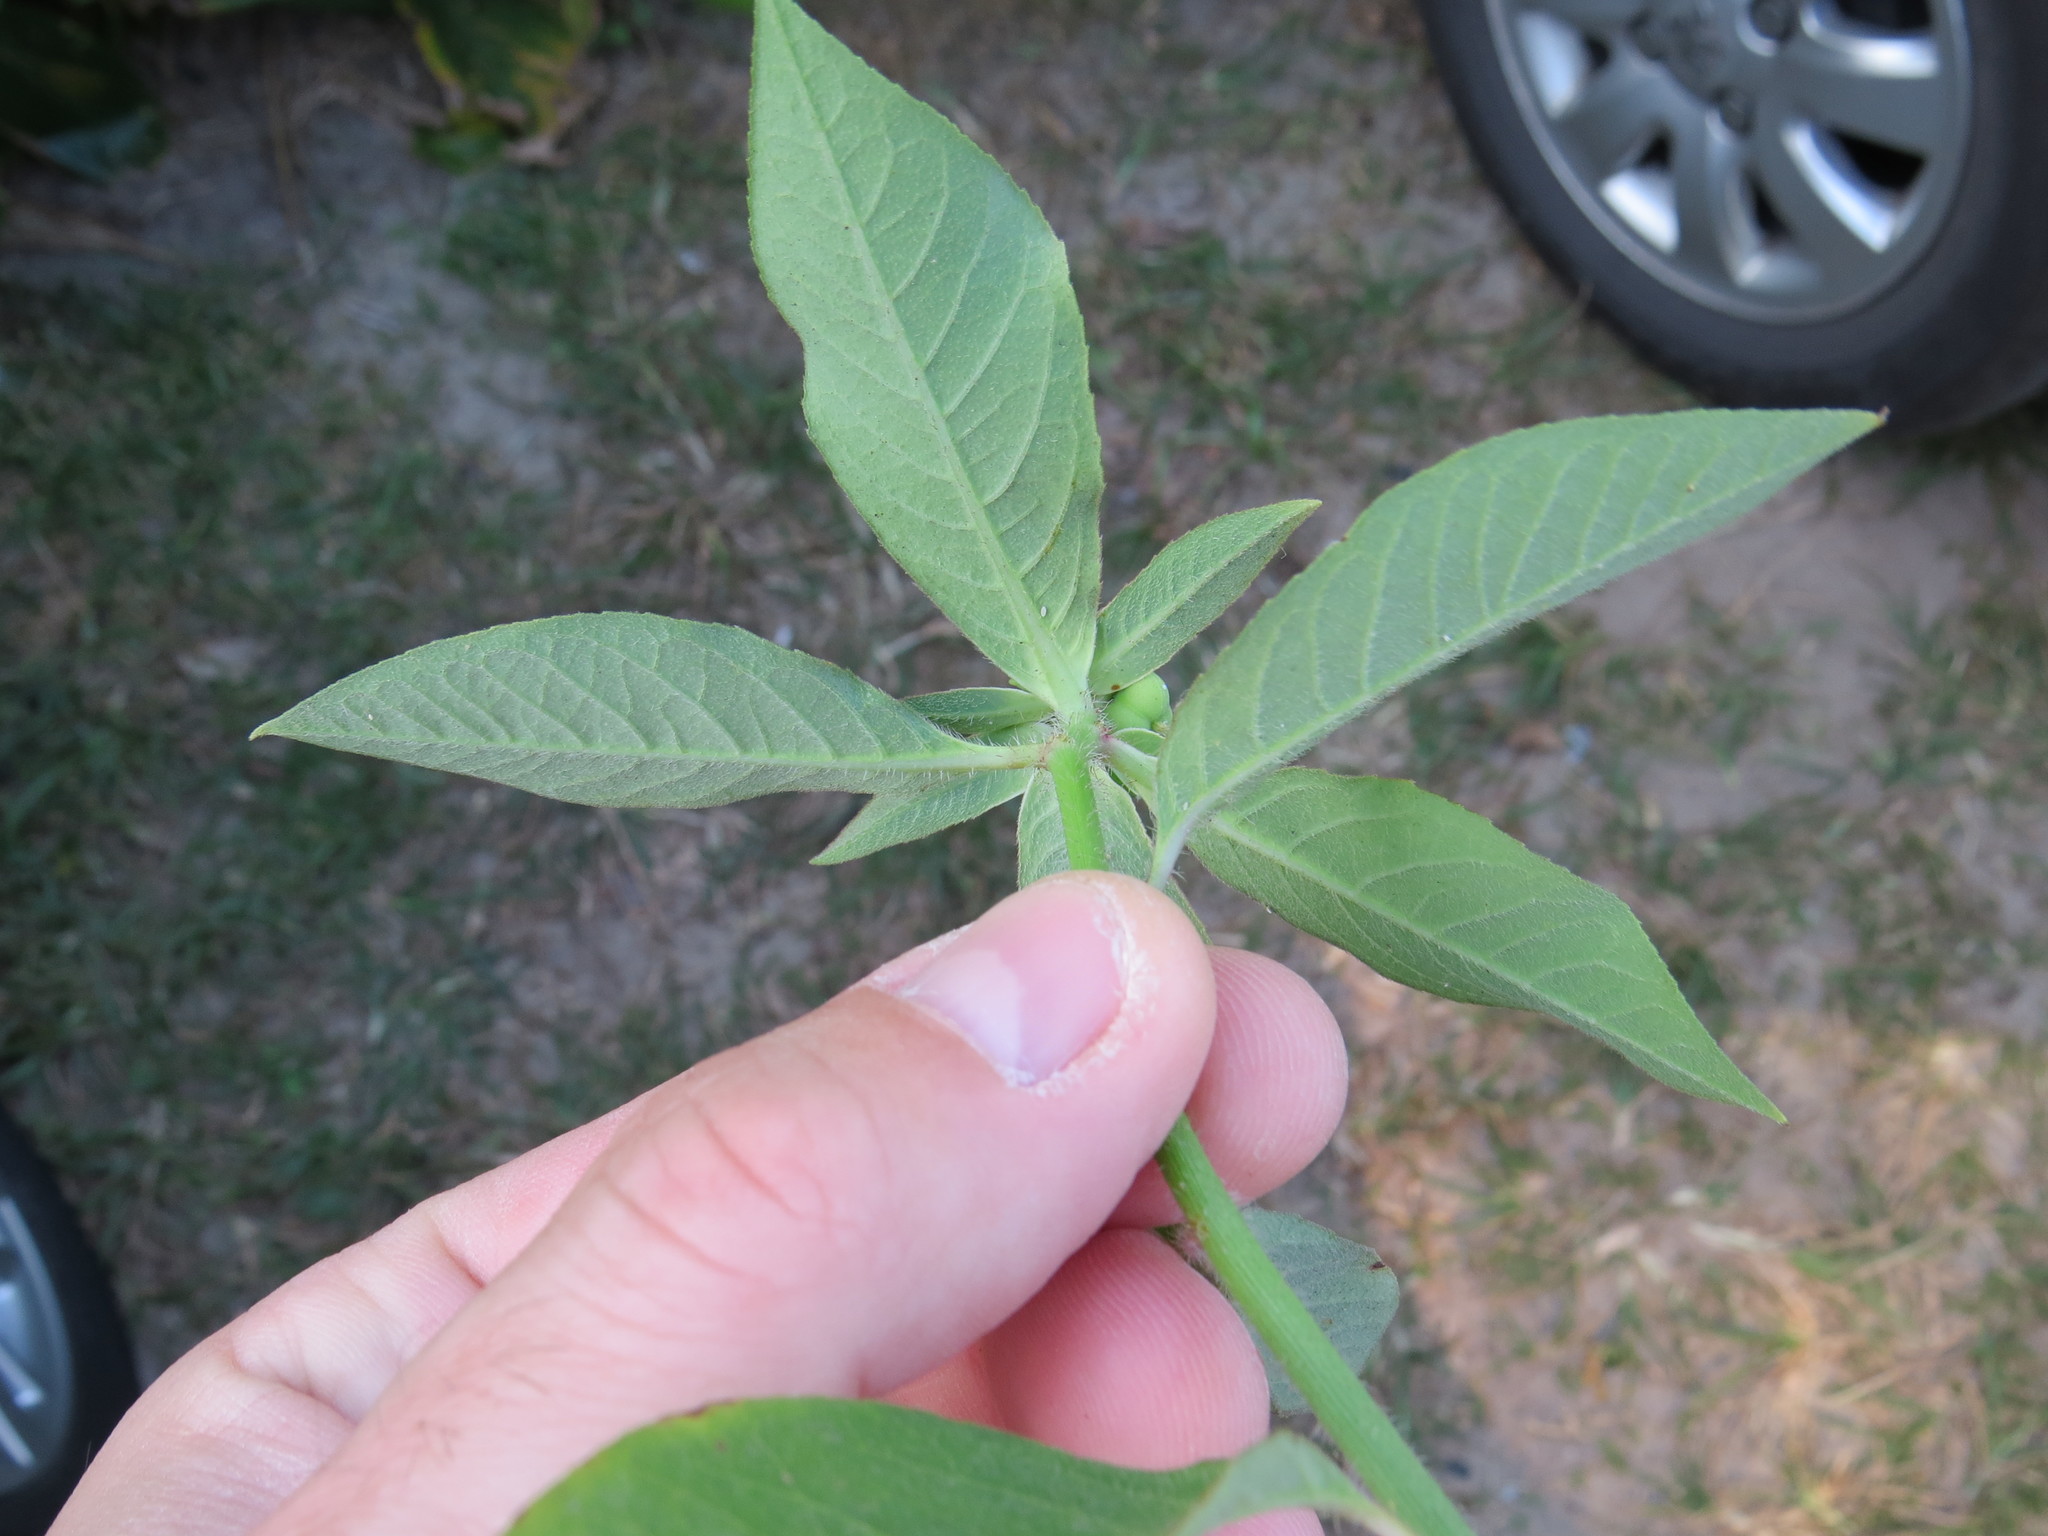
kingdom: Plantae
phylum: Tracheophyta
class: Magnoliopsida
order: Malpighiales
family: Euphorbiaceae
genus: Euphorbia
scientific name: Euphorbia heterophylla
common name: Mexican fireplant
